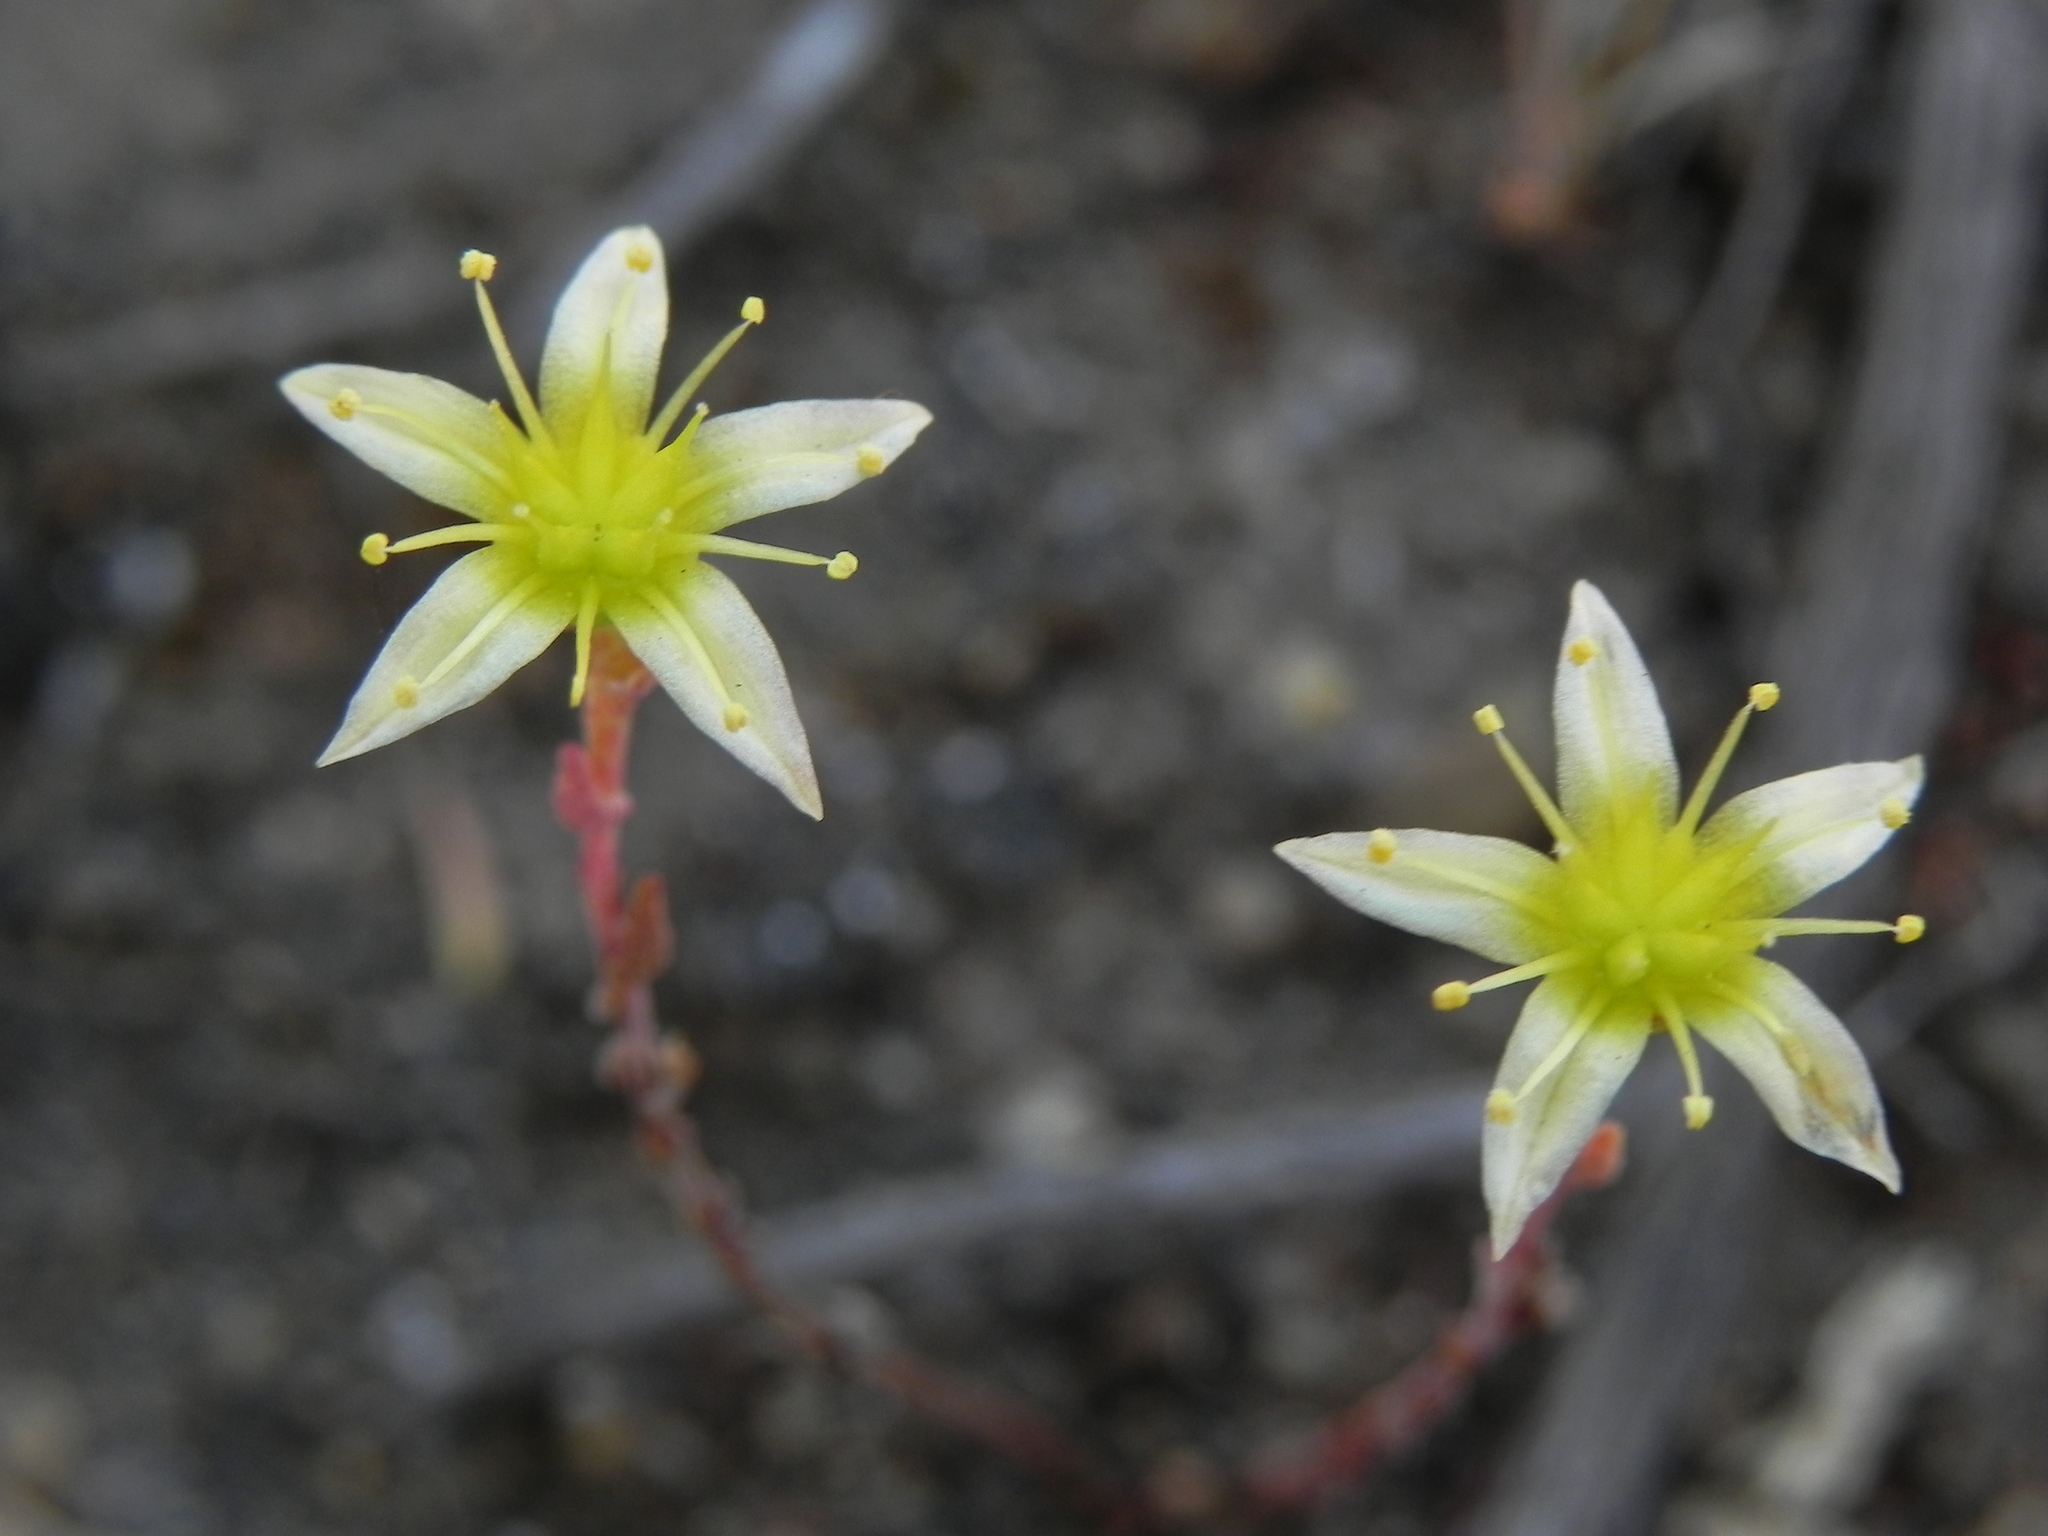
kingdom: Plantae
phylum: Tracheophyta
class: Magnoliopsida
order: Saxifragales
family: Crassulaceae
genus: Dudleya
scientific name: Dudleya variegata
